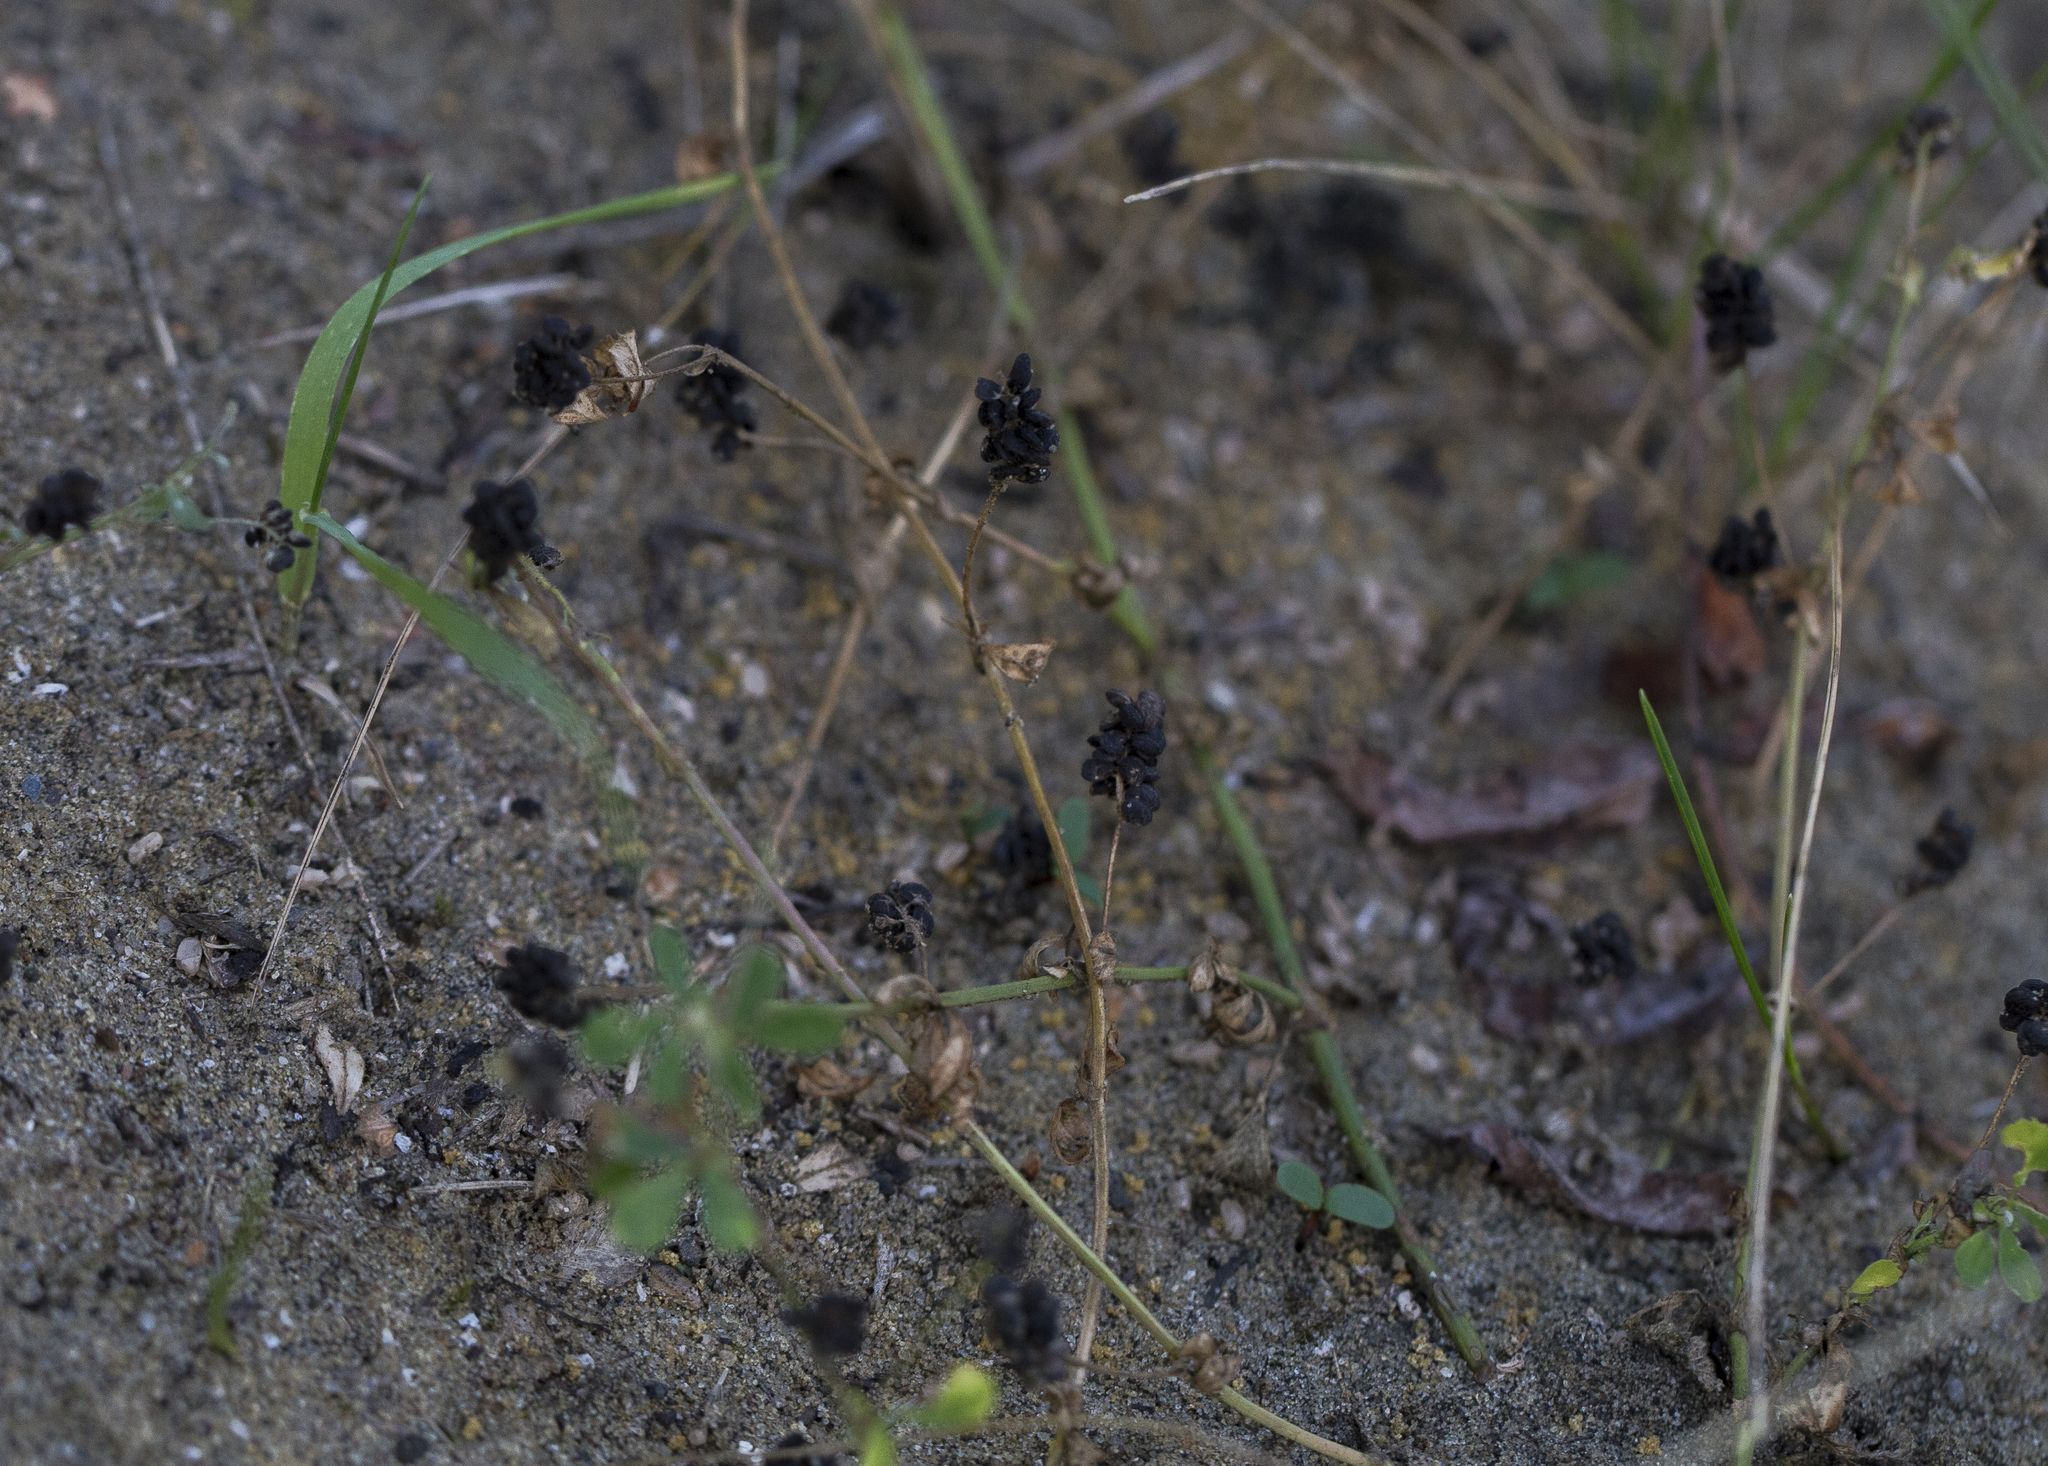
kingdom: Plantae
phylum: Tracheophyta
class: Magnoliopsida
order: Fabales
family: Fabaceae
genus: Medicago
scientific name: Medicago lupulina
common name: Black medick
